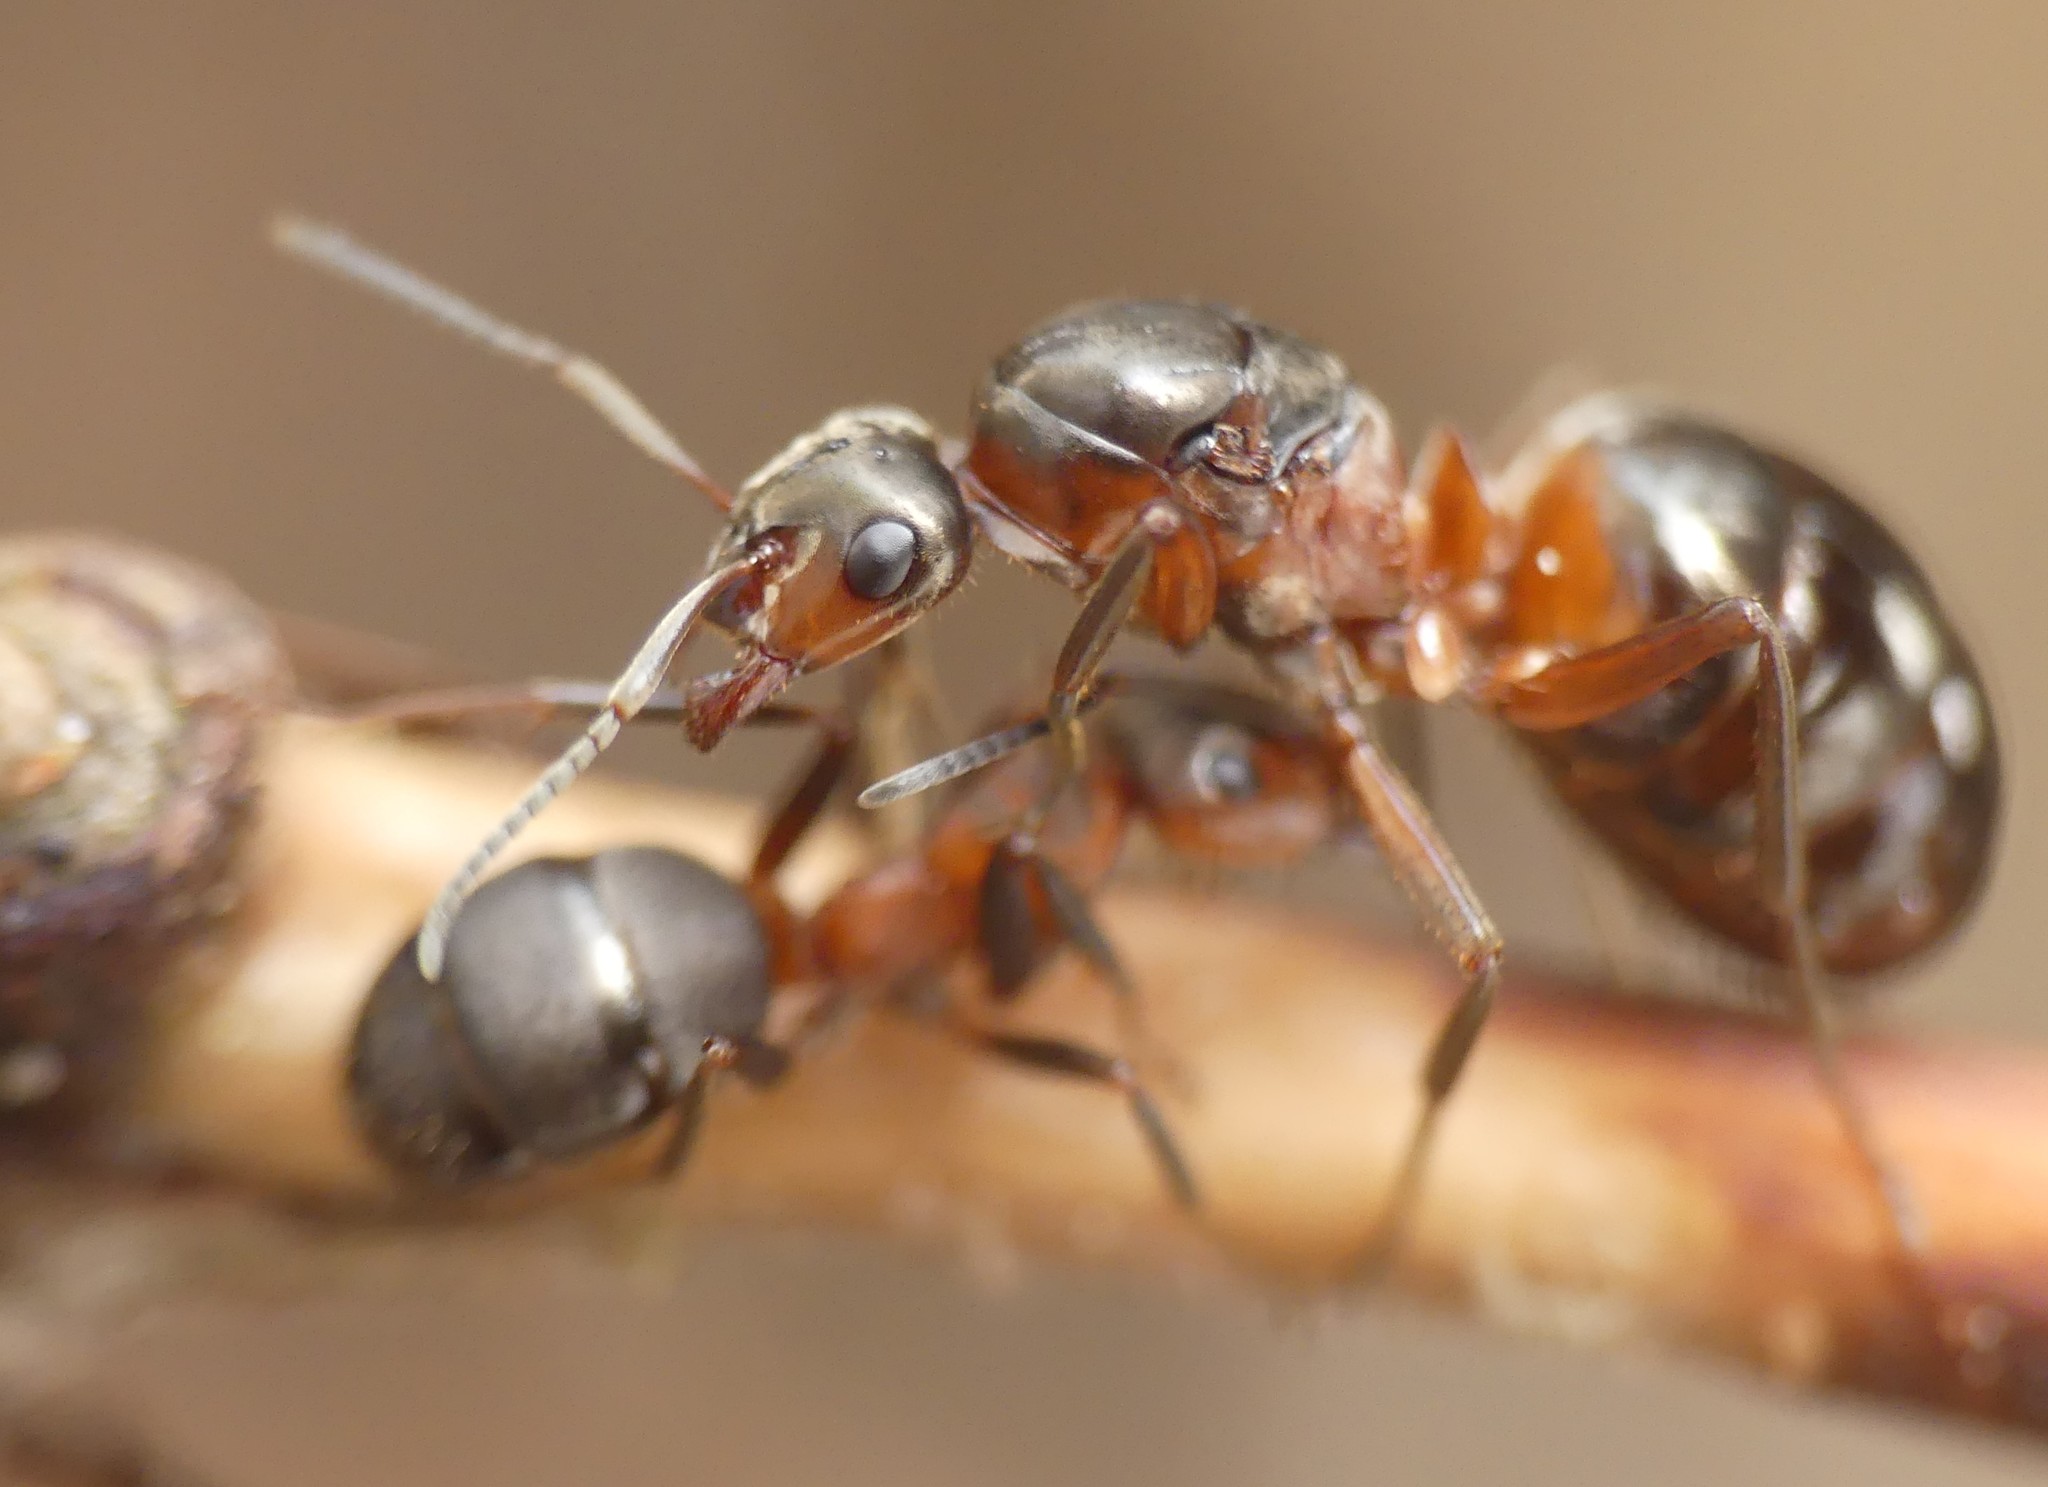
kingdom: Animalia
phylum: Arthropoda
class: Insecta
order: Hymenoptera
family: Formicidae
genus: Formica
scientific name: Formica aquilonia
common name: Scottish wood ant
